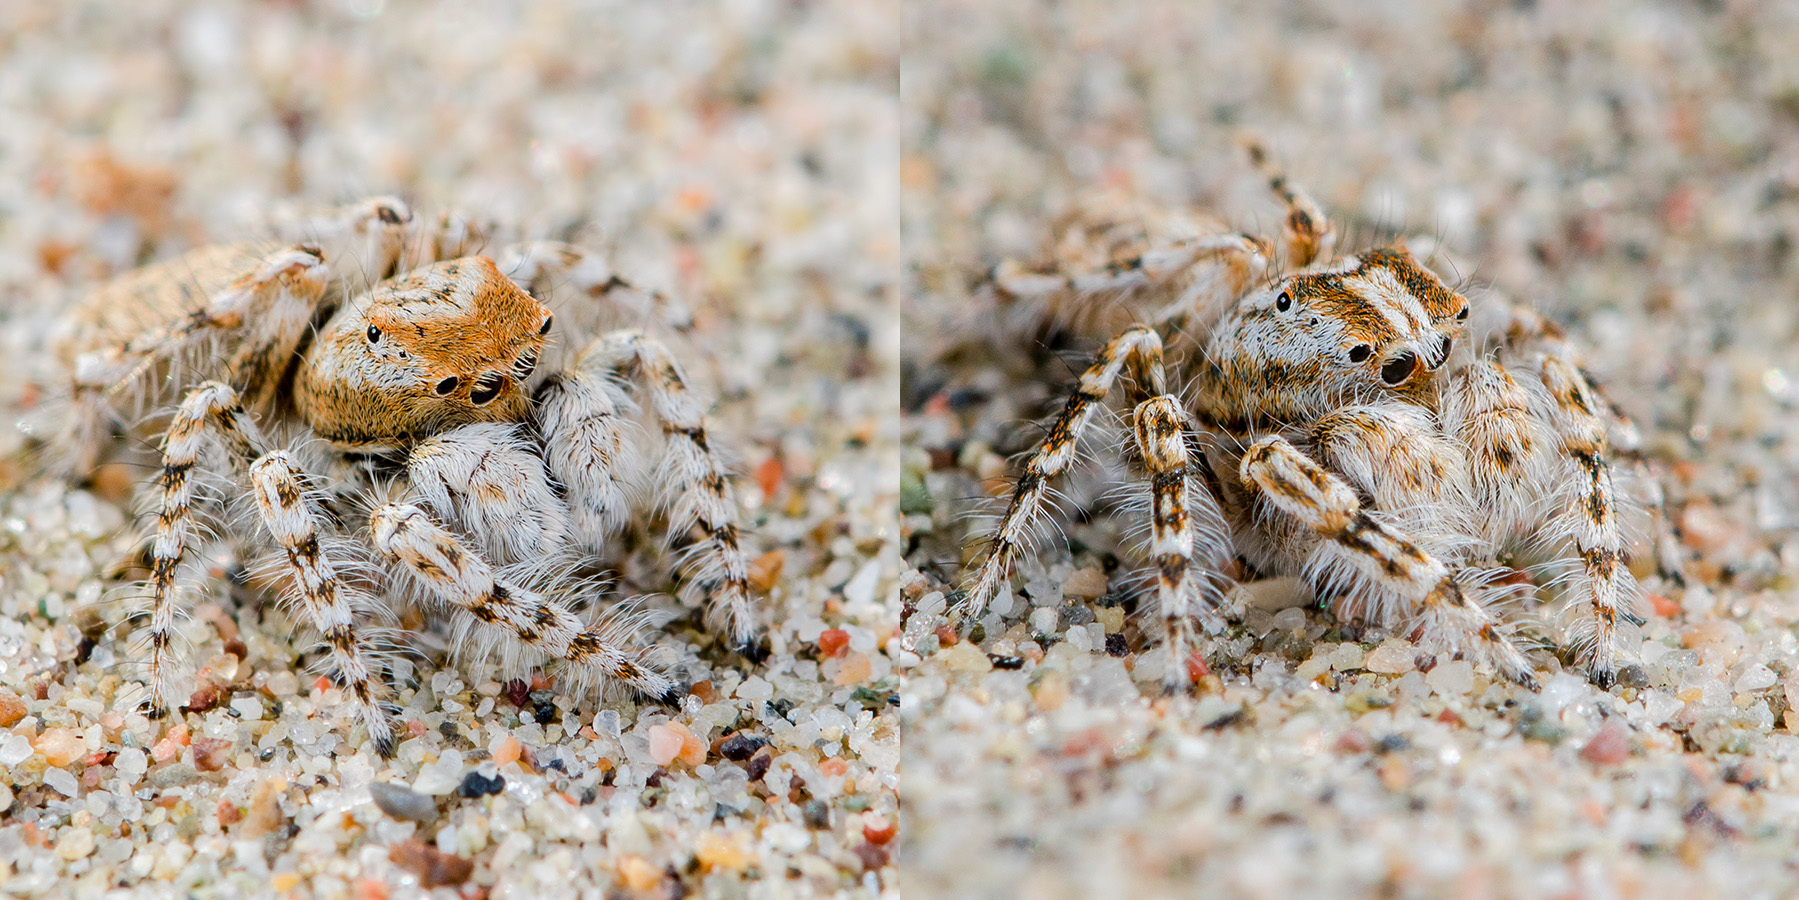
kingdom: Animalia
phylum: Arthropoda
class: Arachnida
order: Araneae
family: Salticidae
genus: Yllenus
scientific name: Yllenus uiguricus
